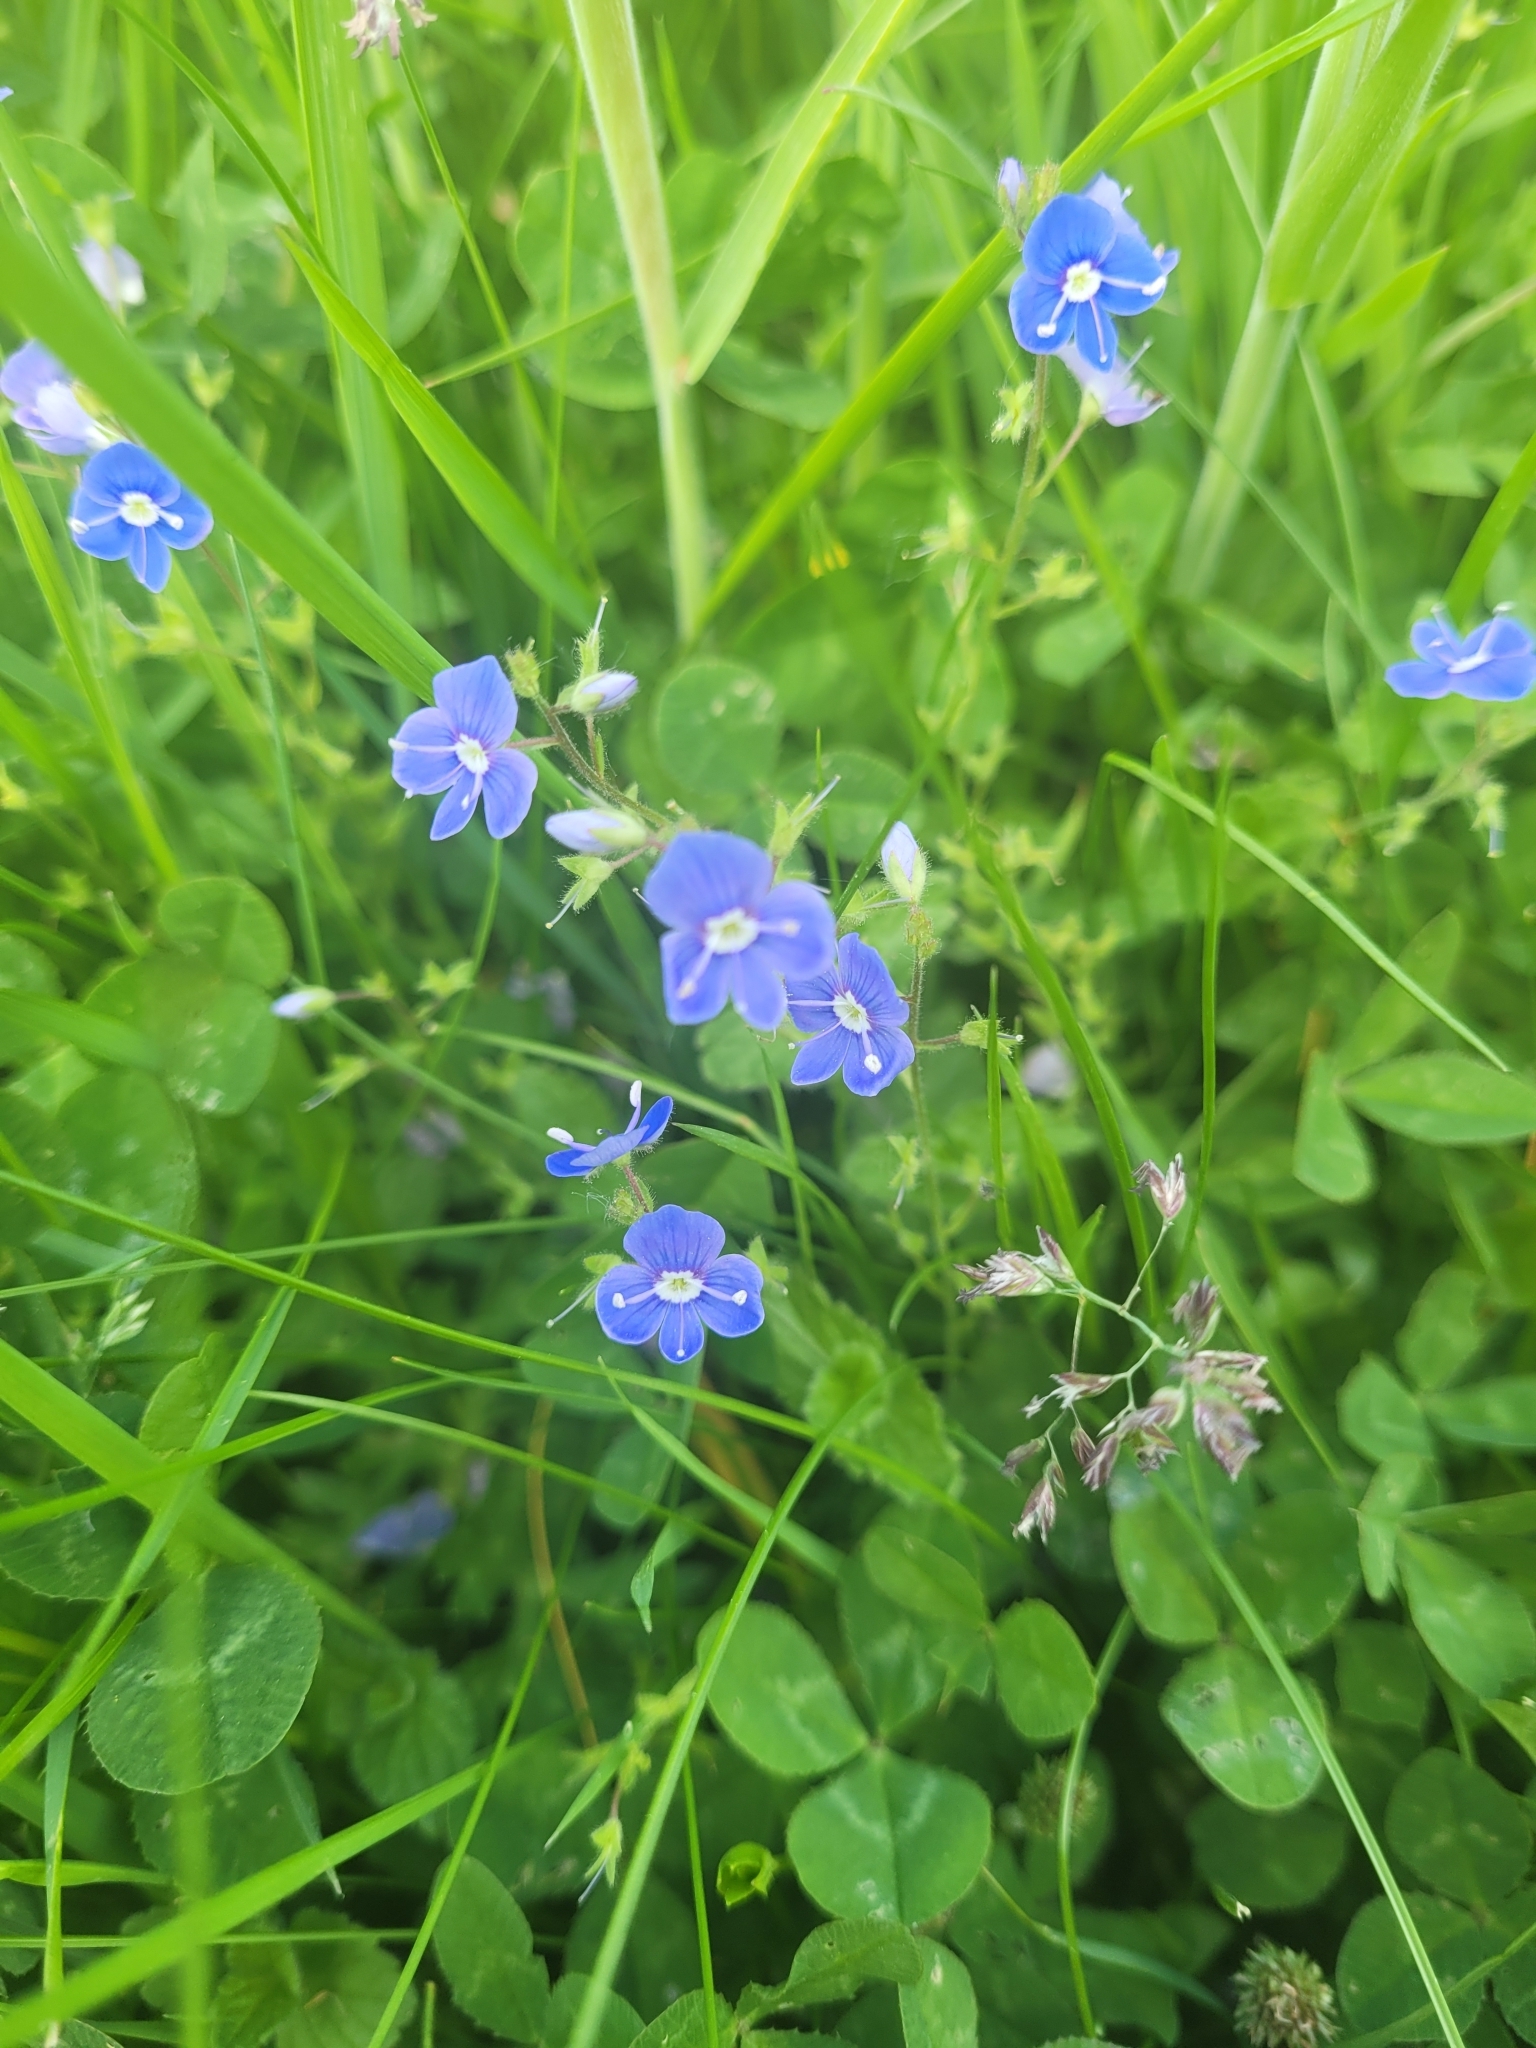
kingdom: Plantae
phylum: Tracheophyta
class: Magnoliopsida
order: Lamiales
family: Plantaginaceae
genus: Veronica
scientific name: Veronica chamaedrys
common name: Germander speedwell
